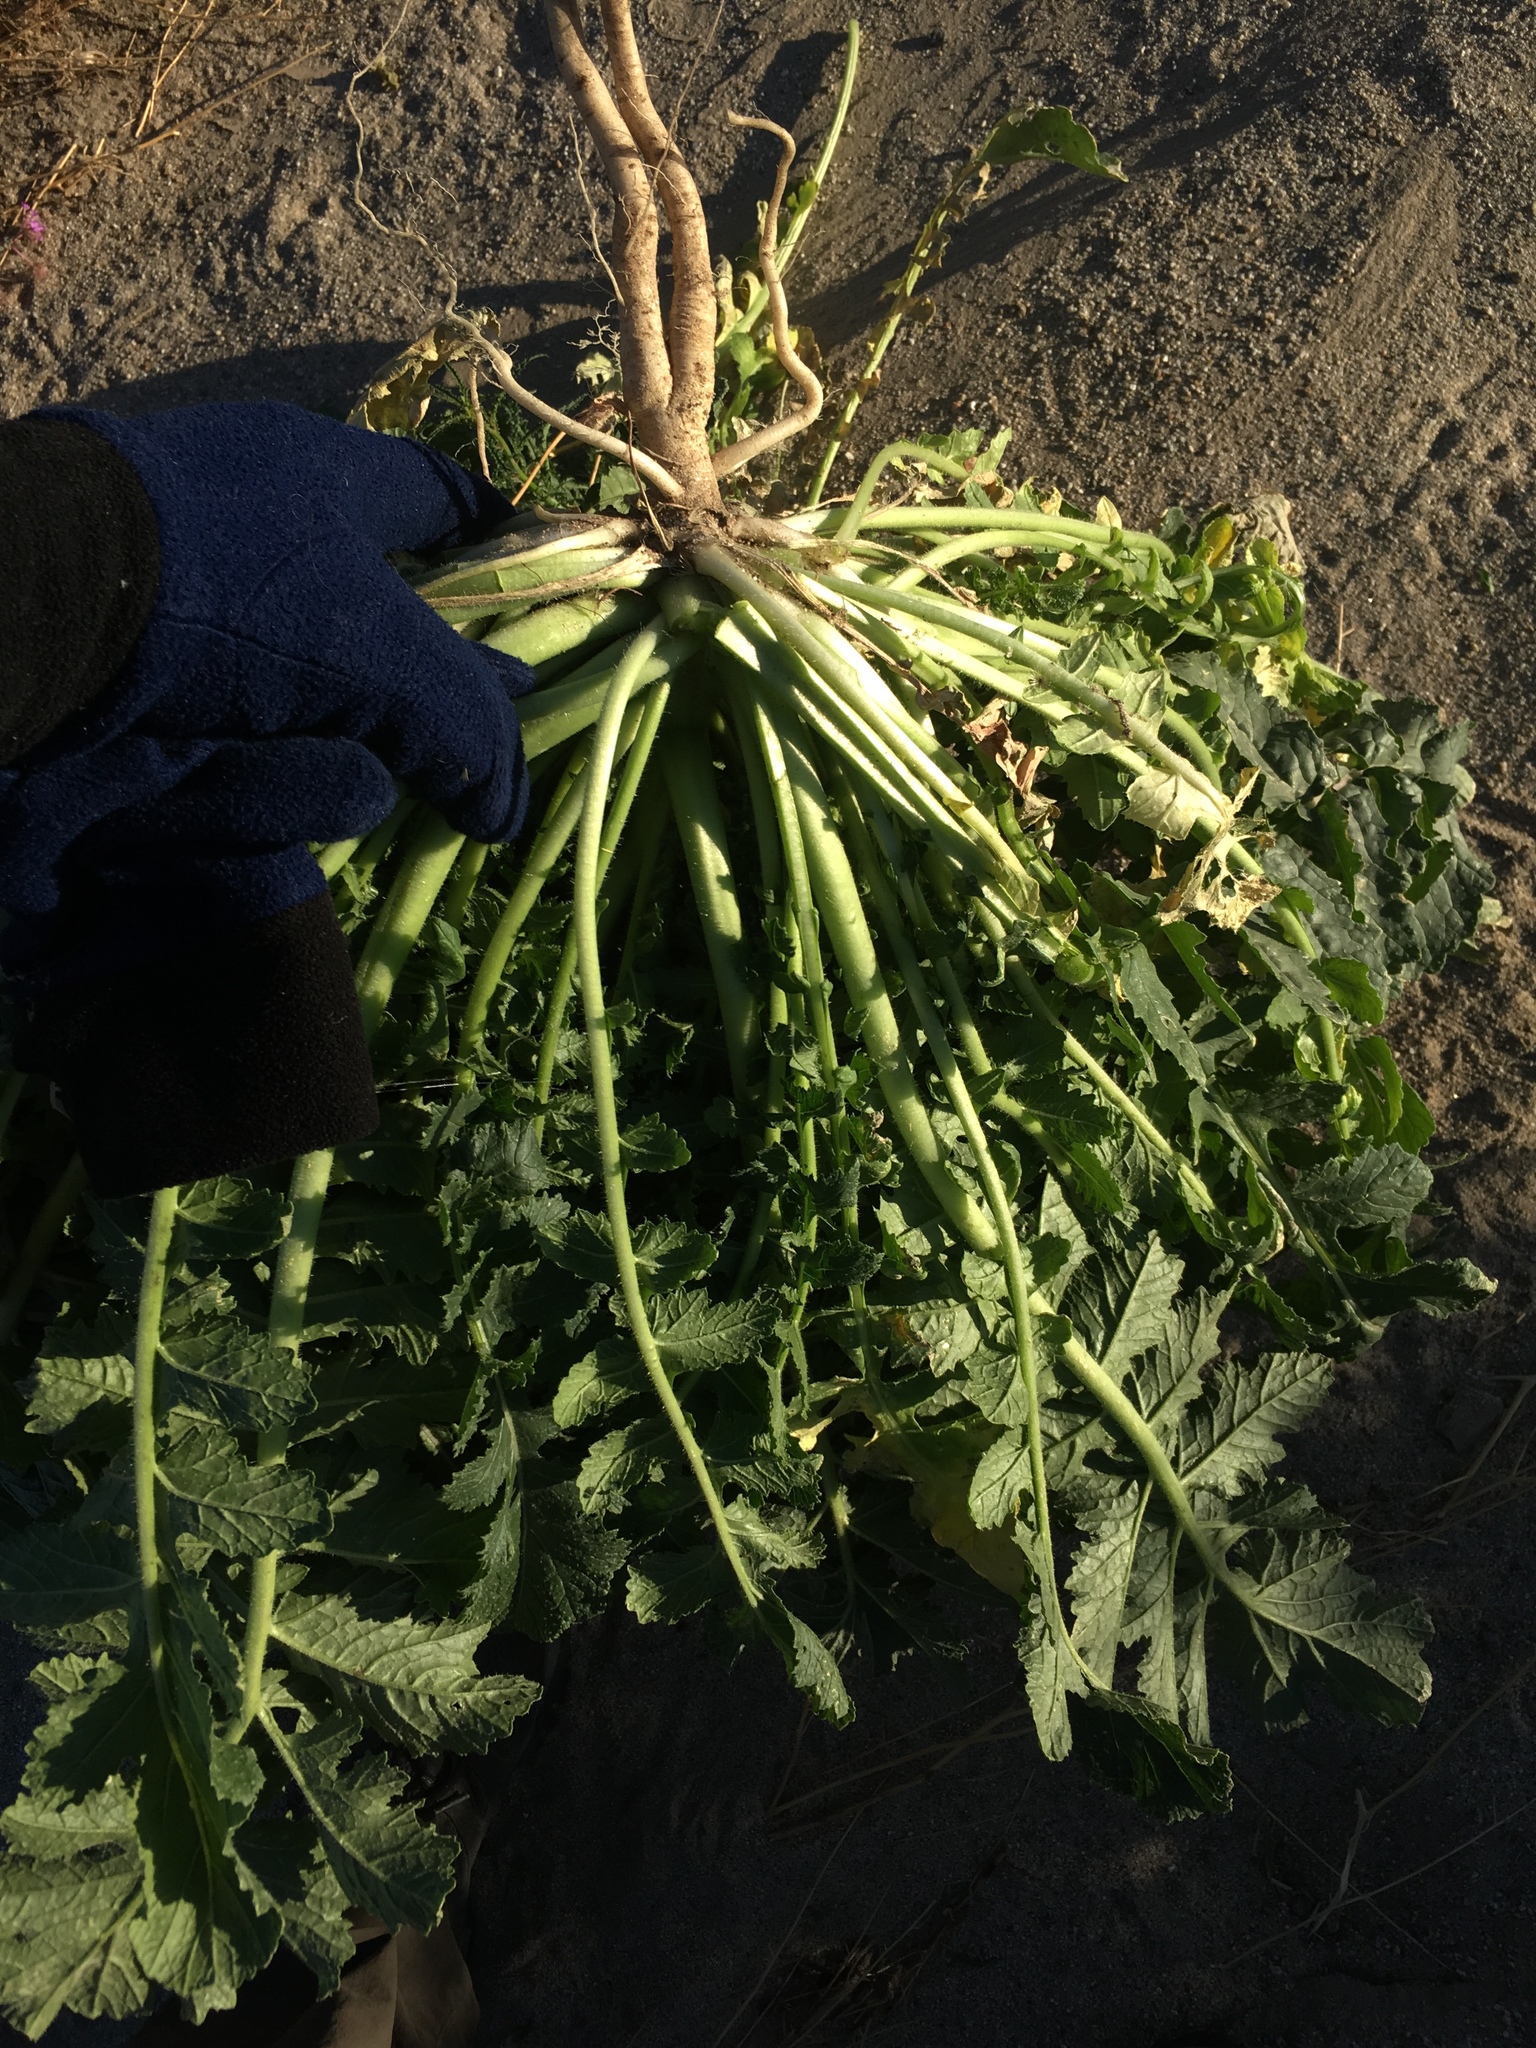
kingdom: Plantae
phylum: Tracheophyta
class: Magnoliopsida
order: Brassicales
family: Brassicaceae
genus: Brassica
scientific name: Brassica tournefortii
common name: Pale cabbage
